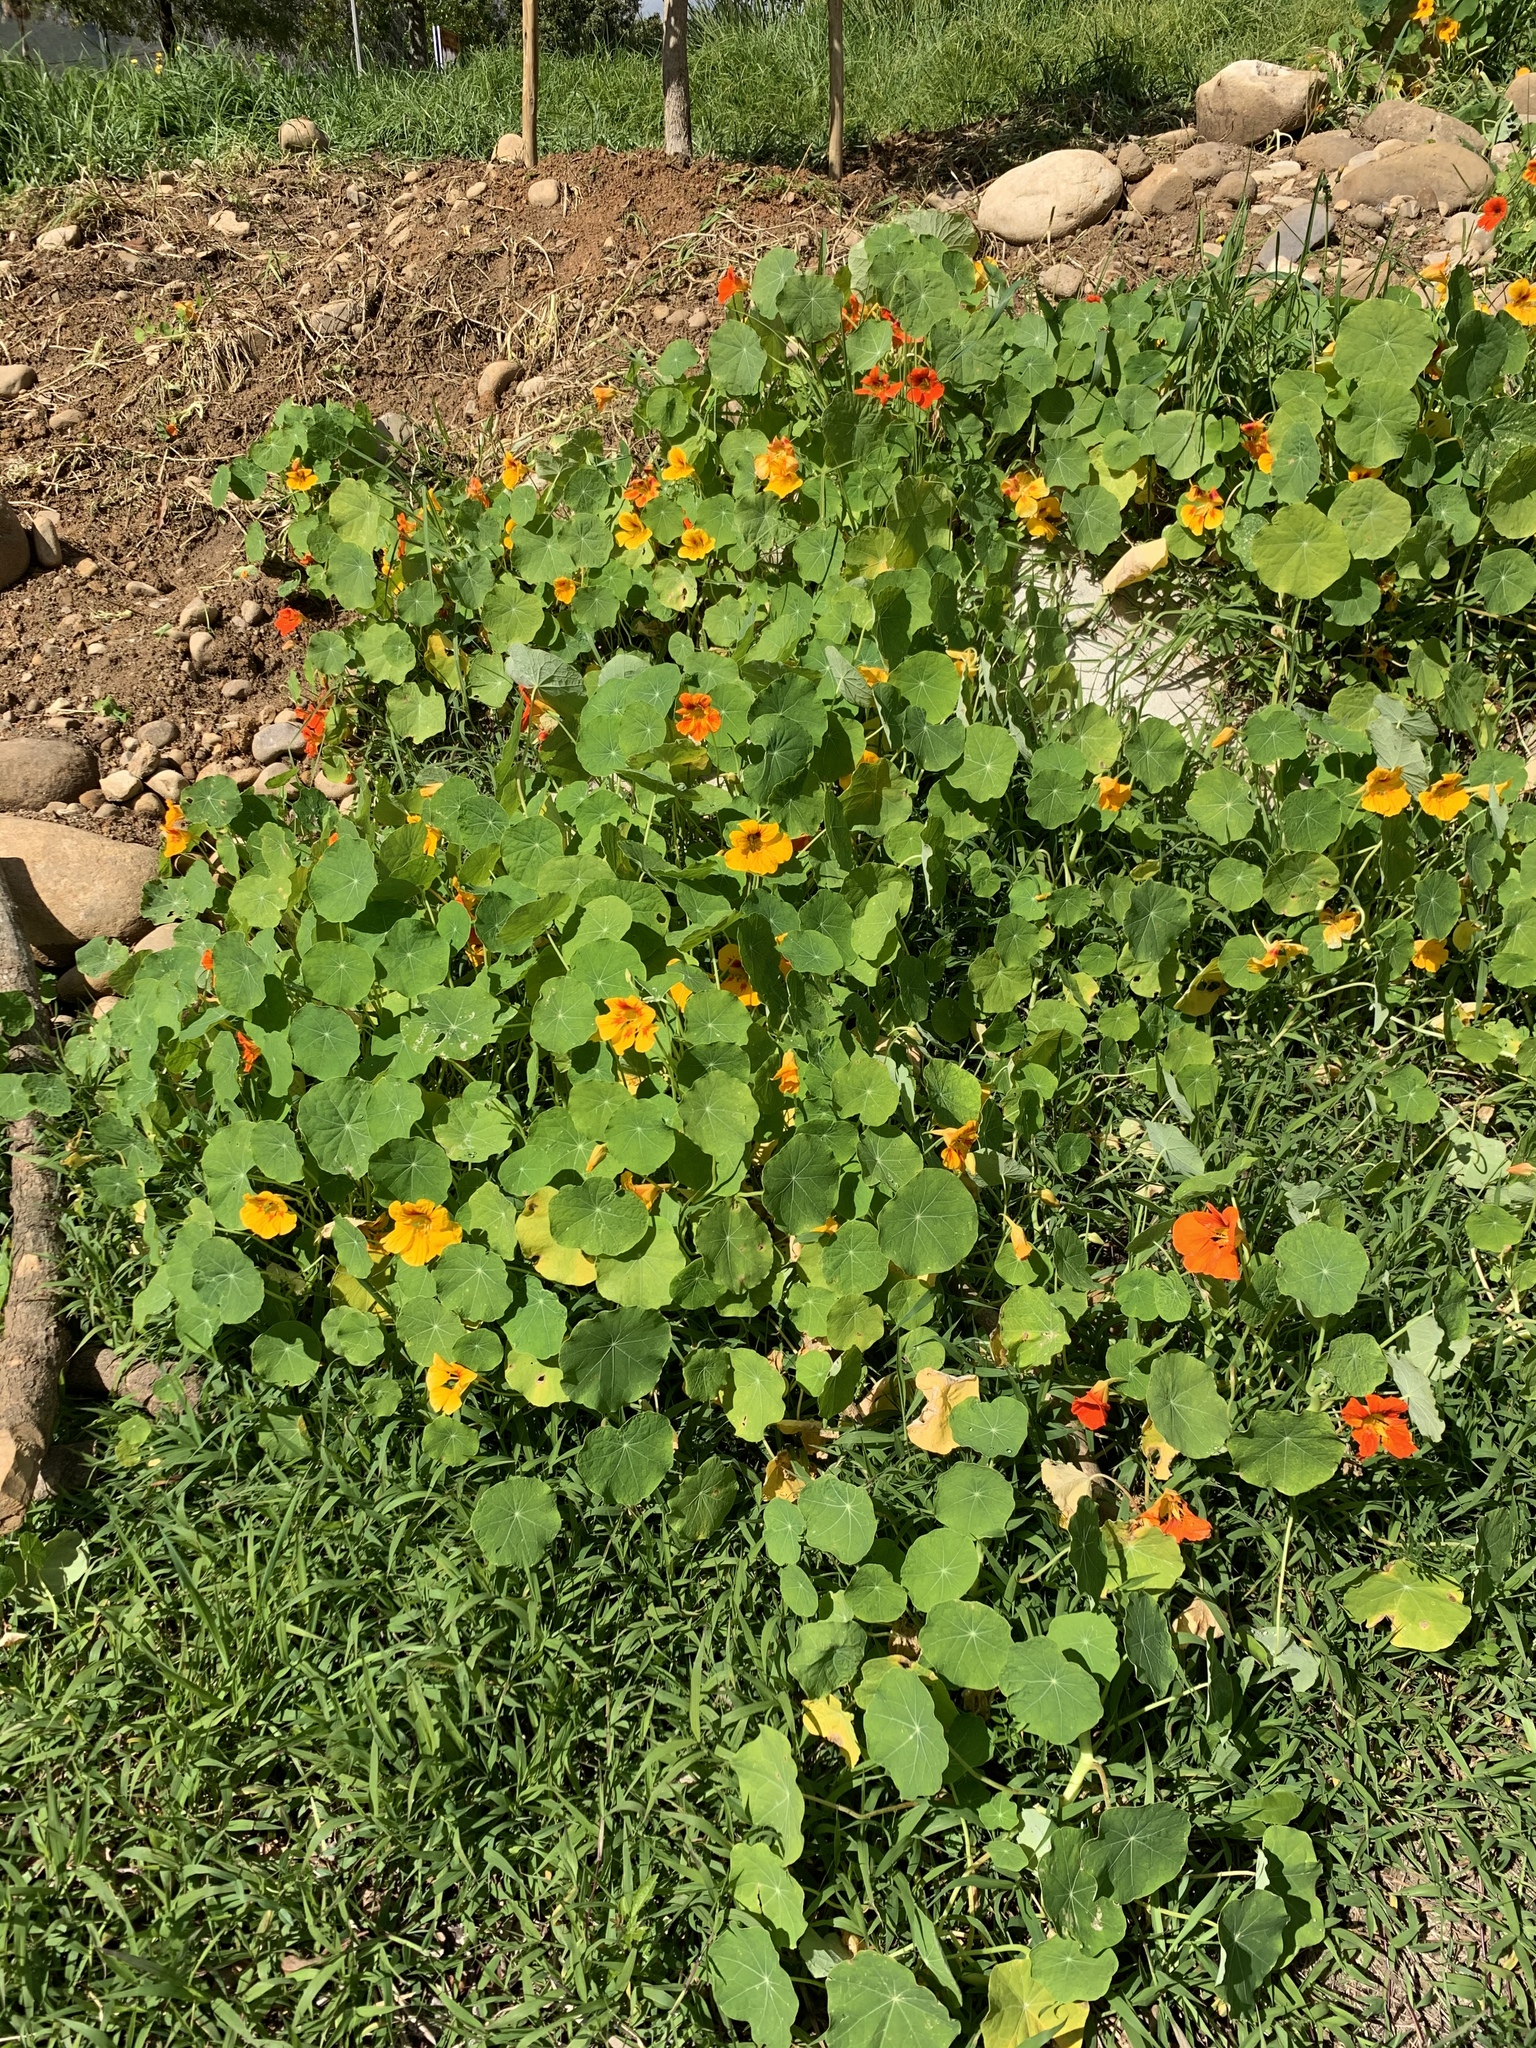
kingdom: Plantae
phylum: Tracheophyta
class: Magnoliopsida
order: Brassicales
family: Tropaeolaceae
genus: Tropaeolum
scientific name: Tropaeolum majus
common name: Nasturtium
